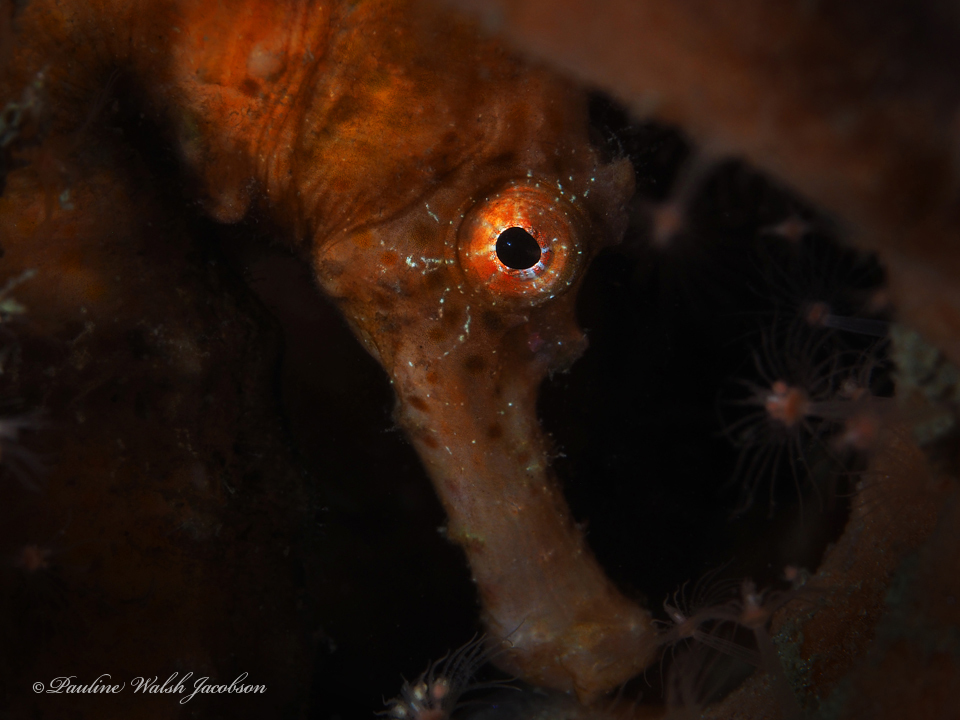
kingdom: Animalia
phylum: Chordata
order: Syngnathiformes
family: Syngnathidae
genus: Hippocampus
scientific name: Hippocampus reidi
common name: Slender seahorse
